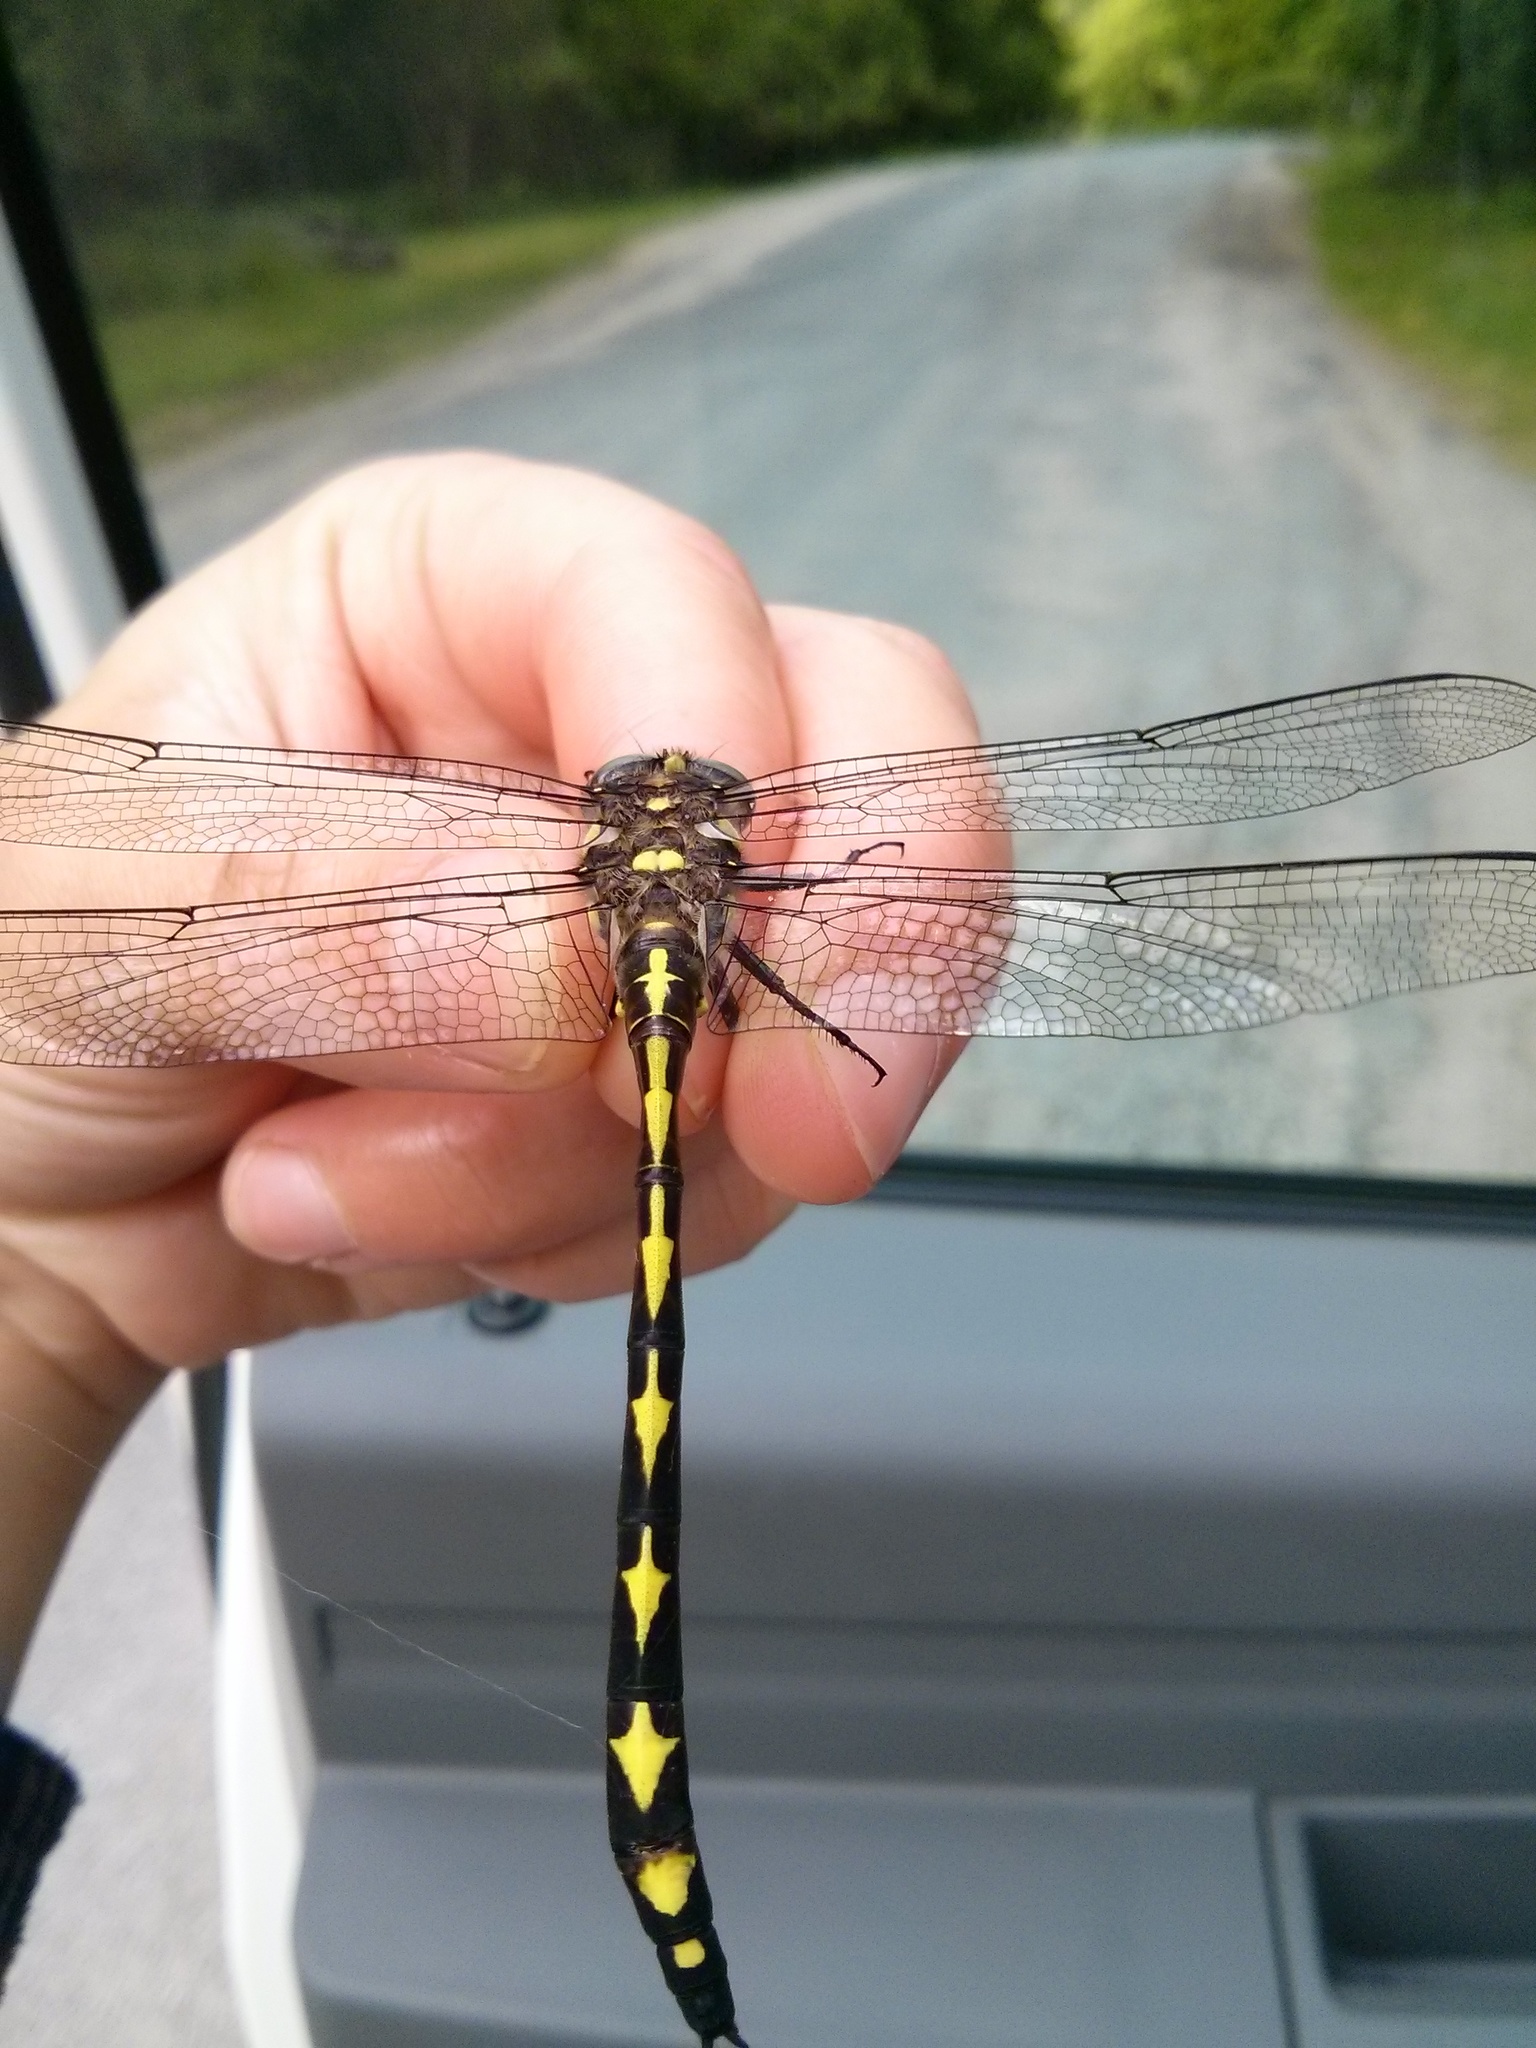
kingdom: Animalia
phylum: Arthropoda
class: Insecta
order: Odonata
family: Cordulegastridae
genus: Cordulegaster
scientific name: Cordulegaster obliqua
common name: Arrowhead spiketail
